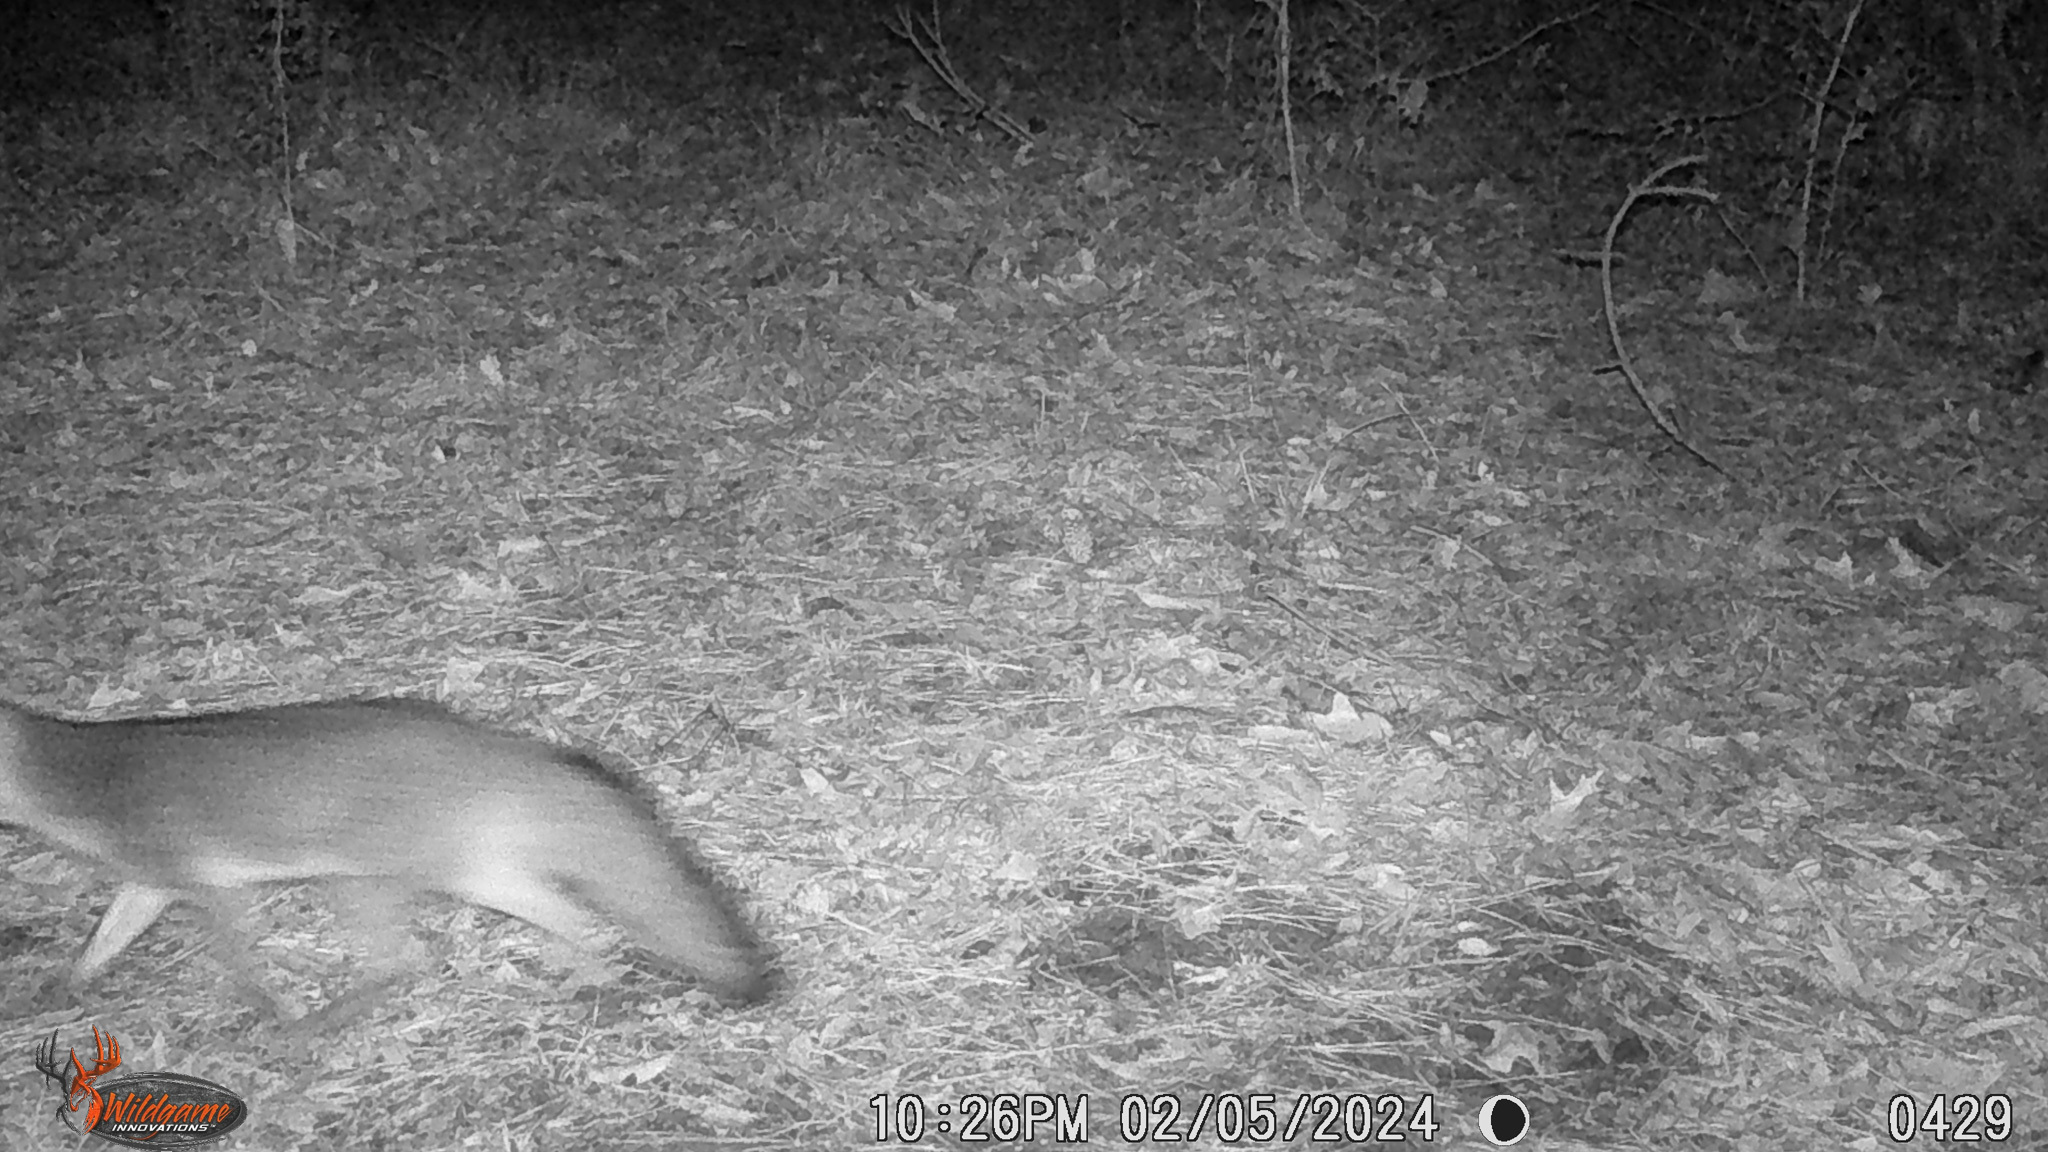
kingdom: Animalia
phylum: Chordata
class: Mammalia
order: Carnivora
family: Canidae
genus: Urocyon
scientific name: Urocyon cinereoargenteus
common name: Gray fox
